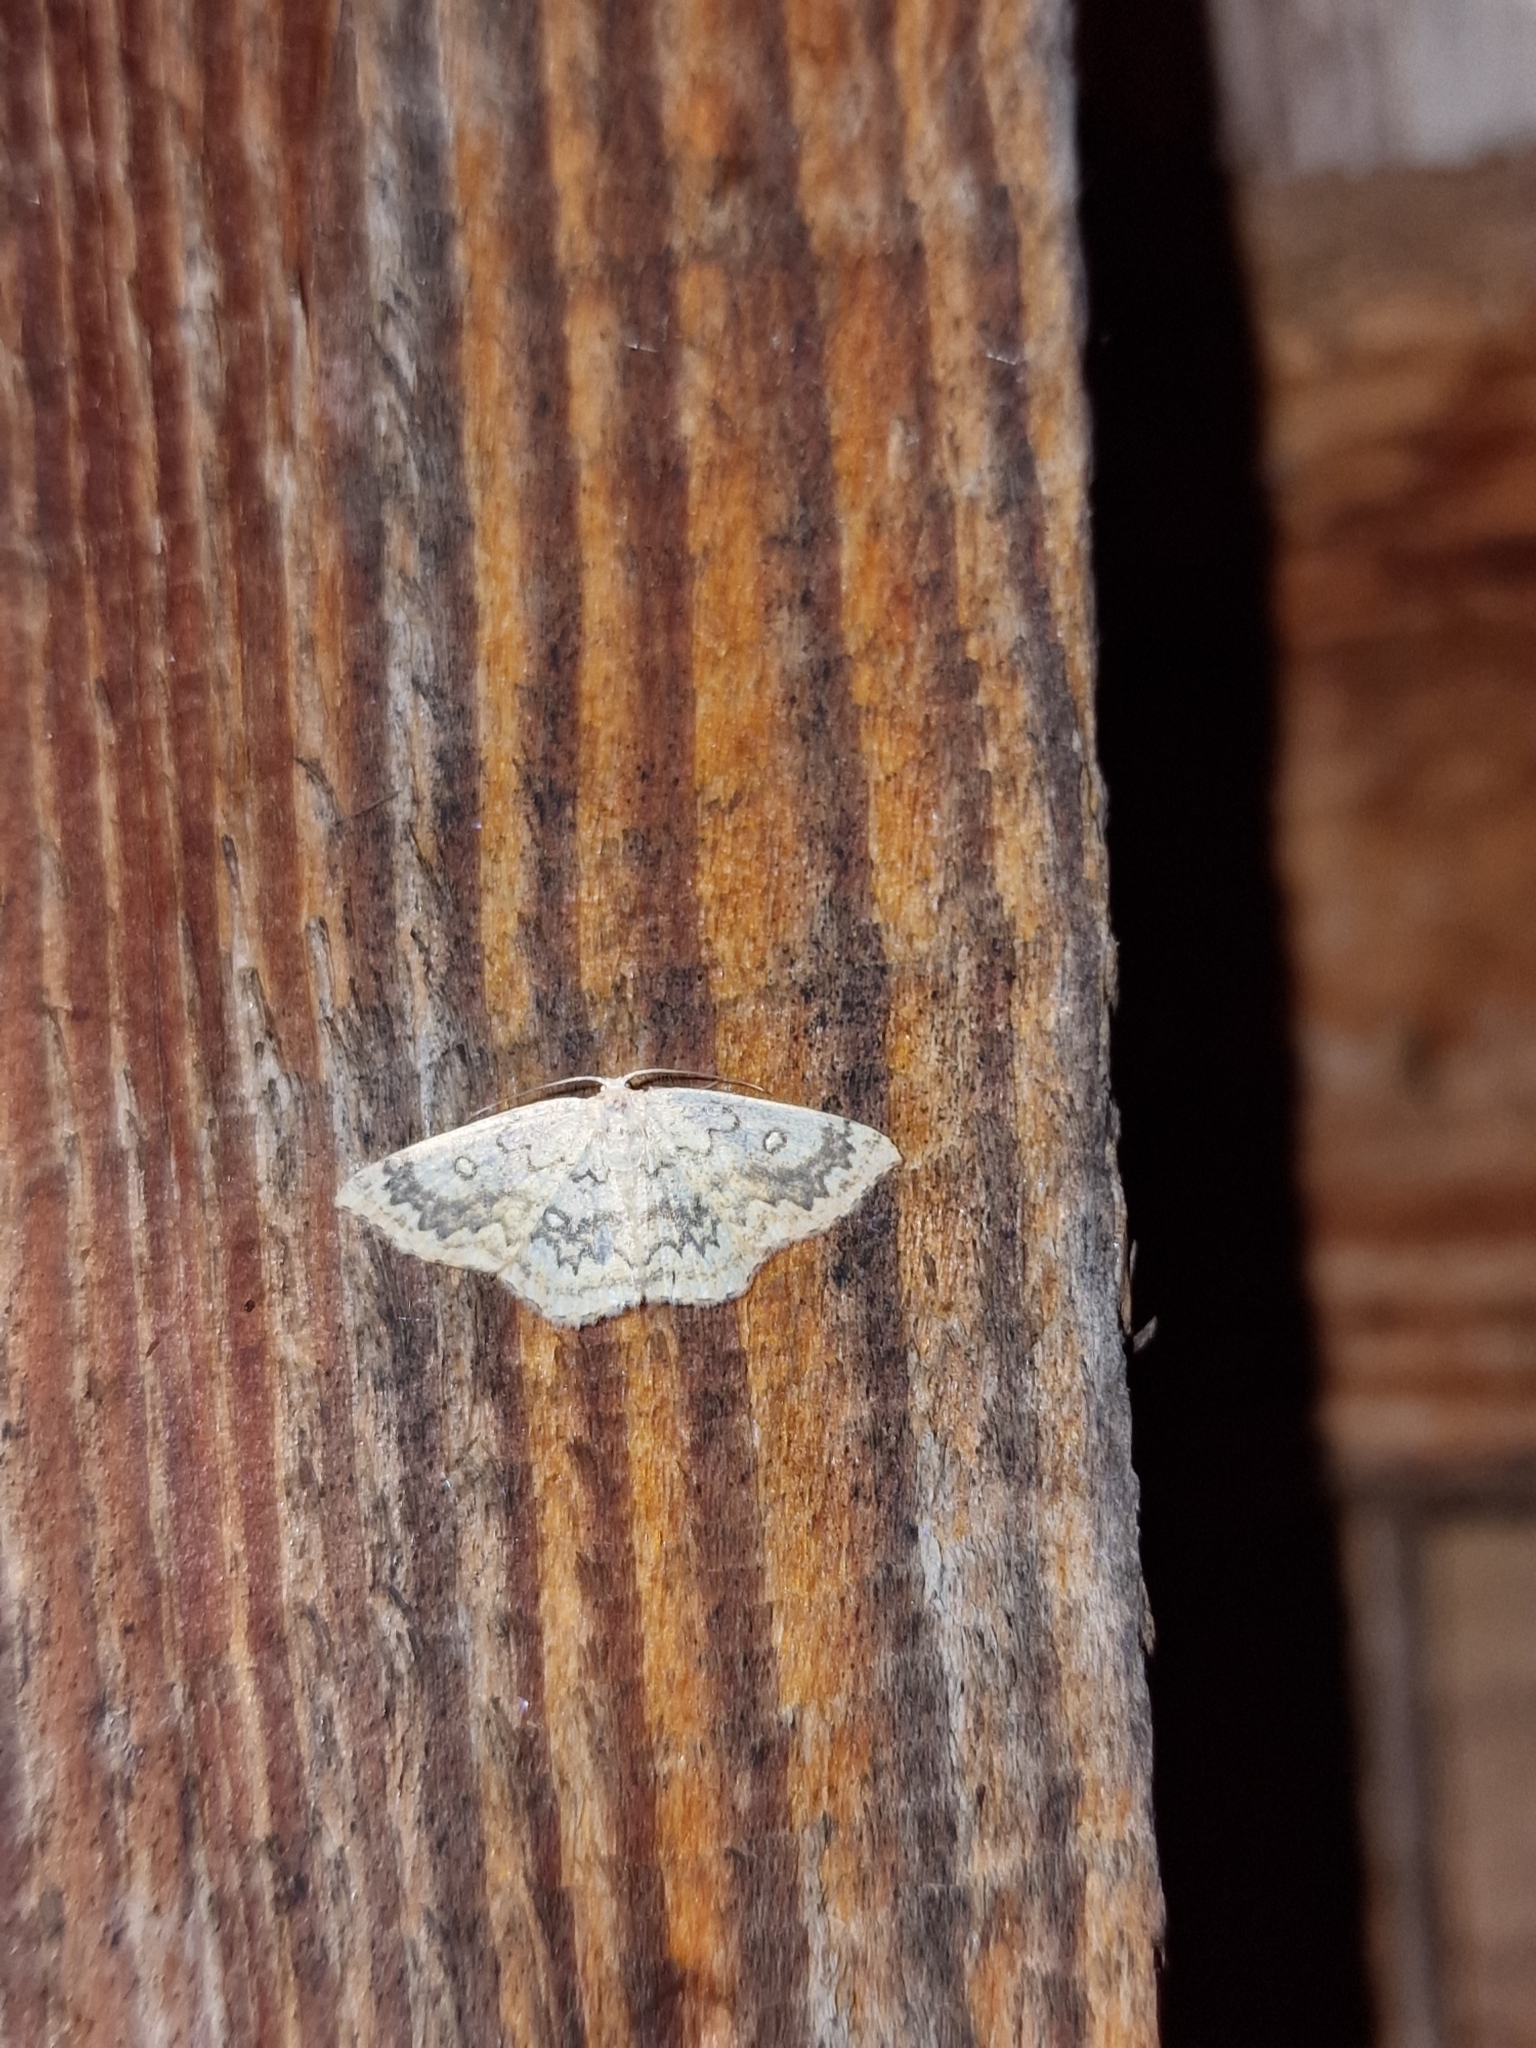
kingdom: Animalia
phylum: Arthropoda
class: Insecta
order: Lepidoptera
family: Geometridae
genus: Cyclophora
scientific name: Cyclophora annularia
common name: Mocha
